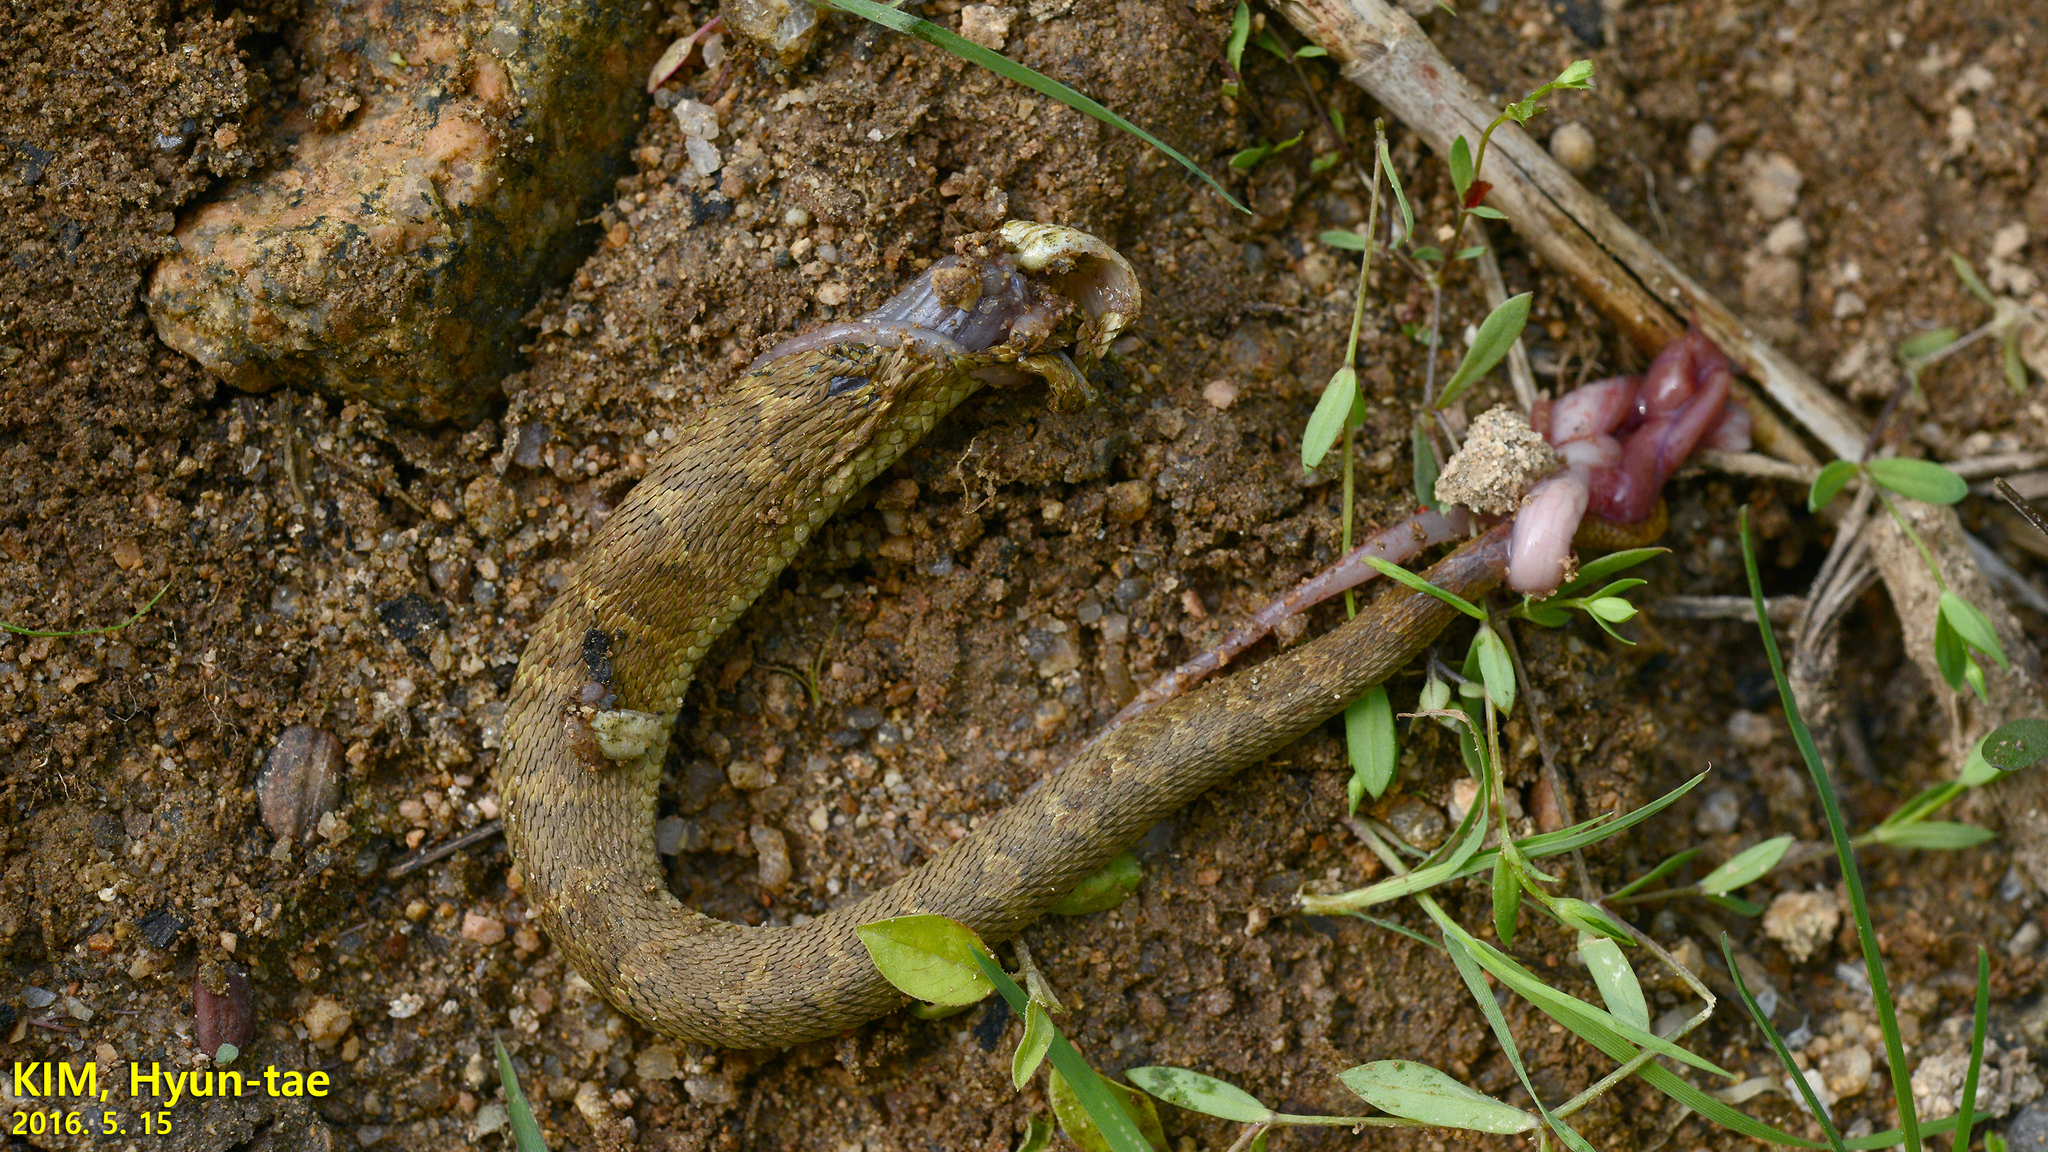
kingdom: Animalia
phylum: Chordata
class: Squamata
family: Viperidae
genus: Gloydius
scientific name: Gloydius ussuriensis
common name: Ussuri mamushi
